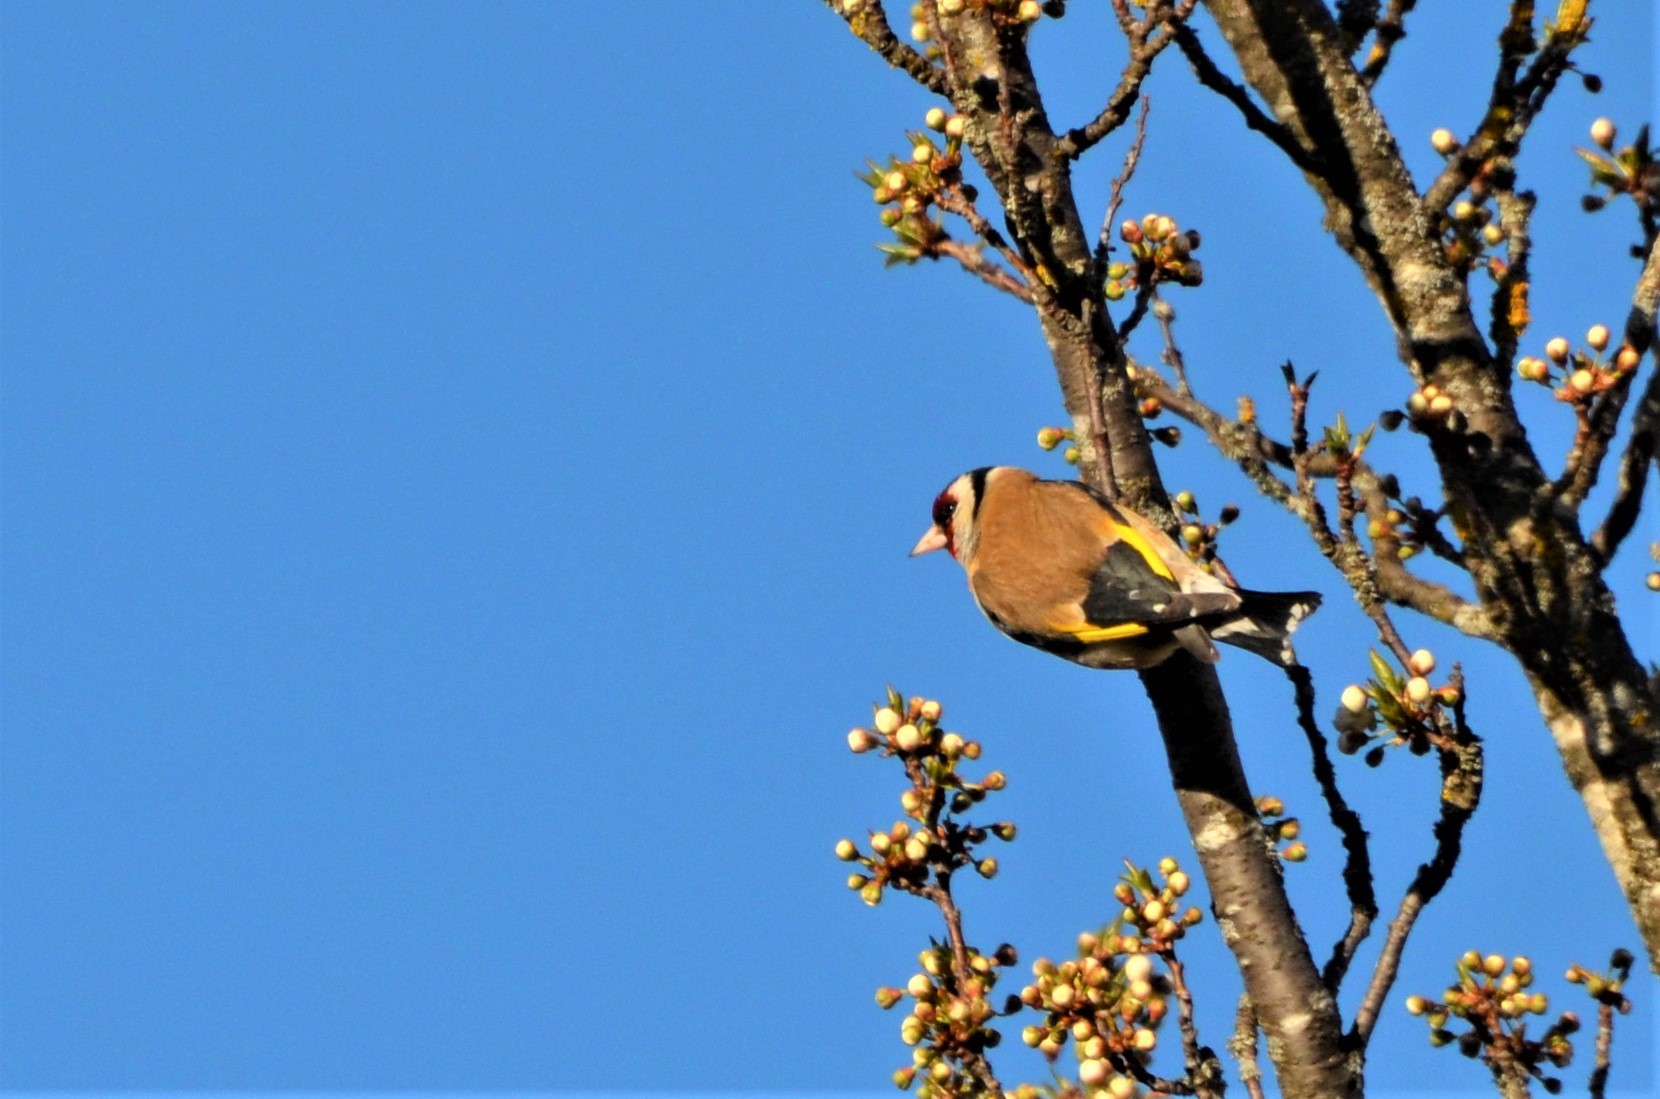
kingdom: Animalia
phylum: Chordata
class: Aves
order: Passeriformes
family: Fringillidae
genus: Carduelis
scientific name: Carduelis carduelis
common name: European goldfinch
